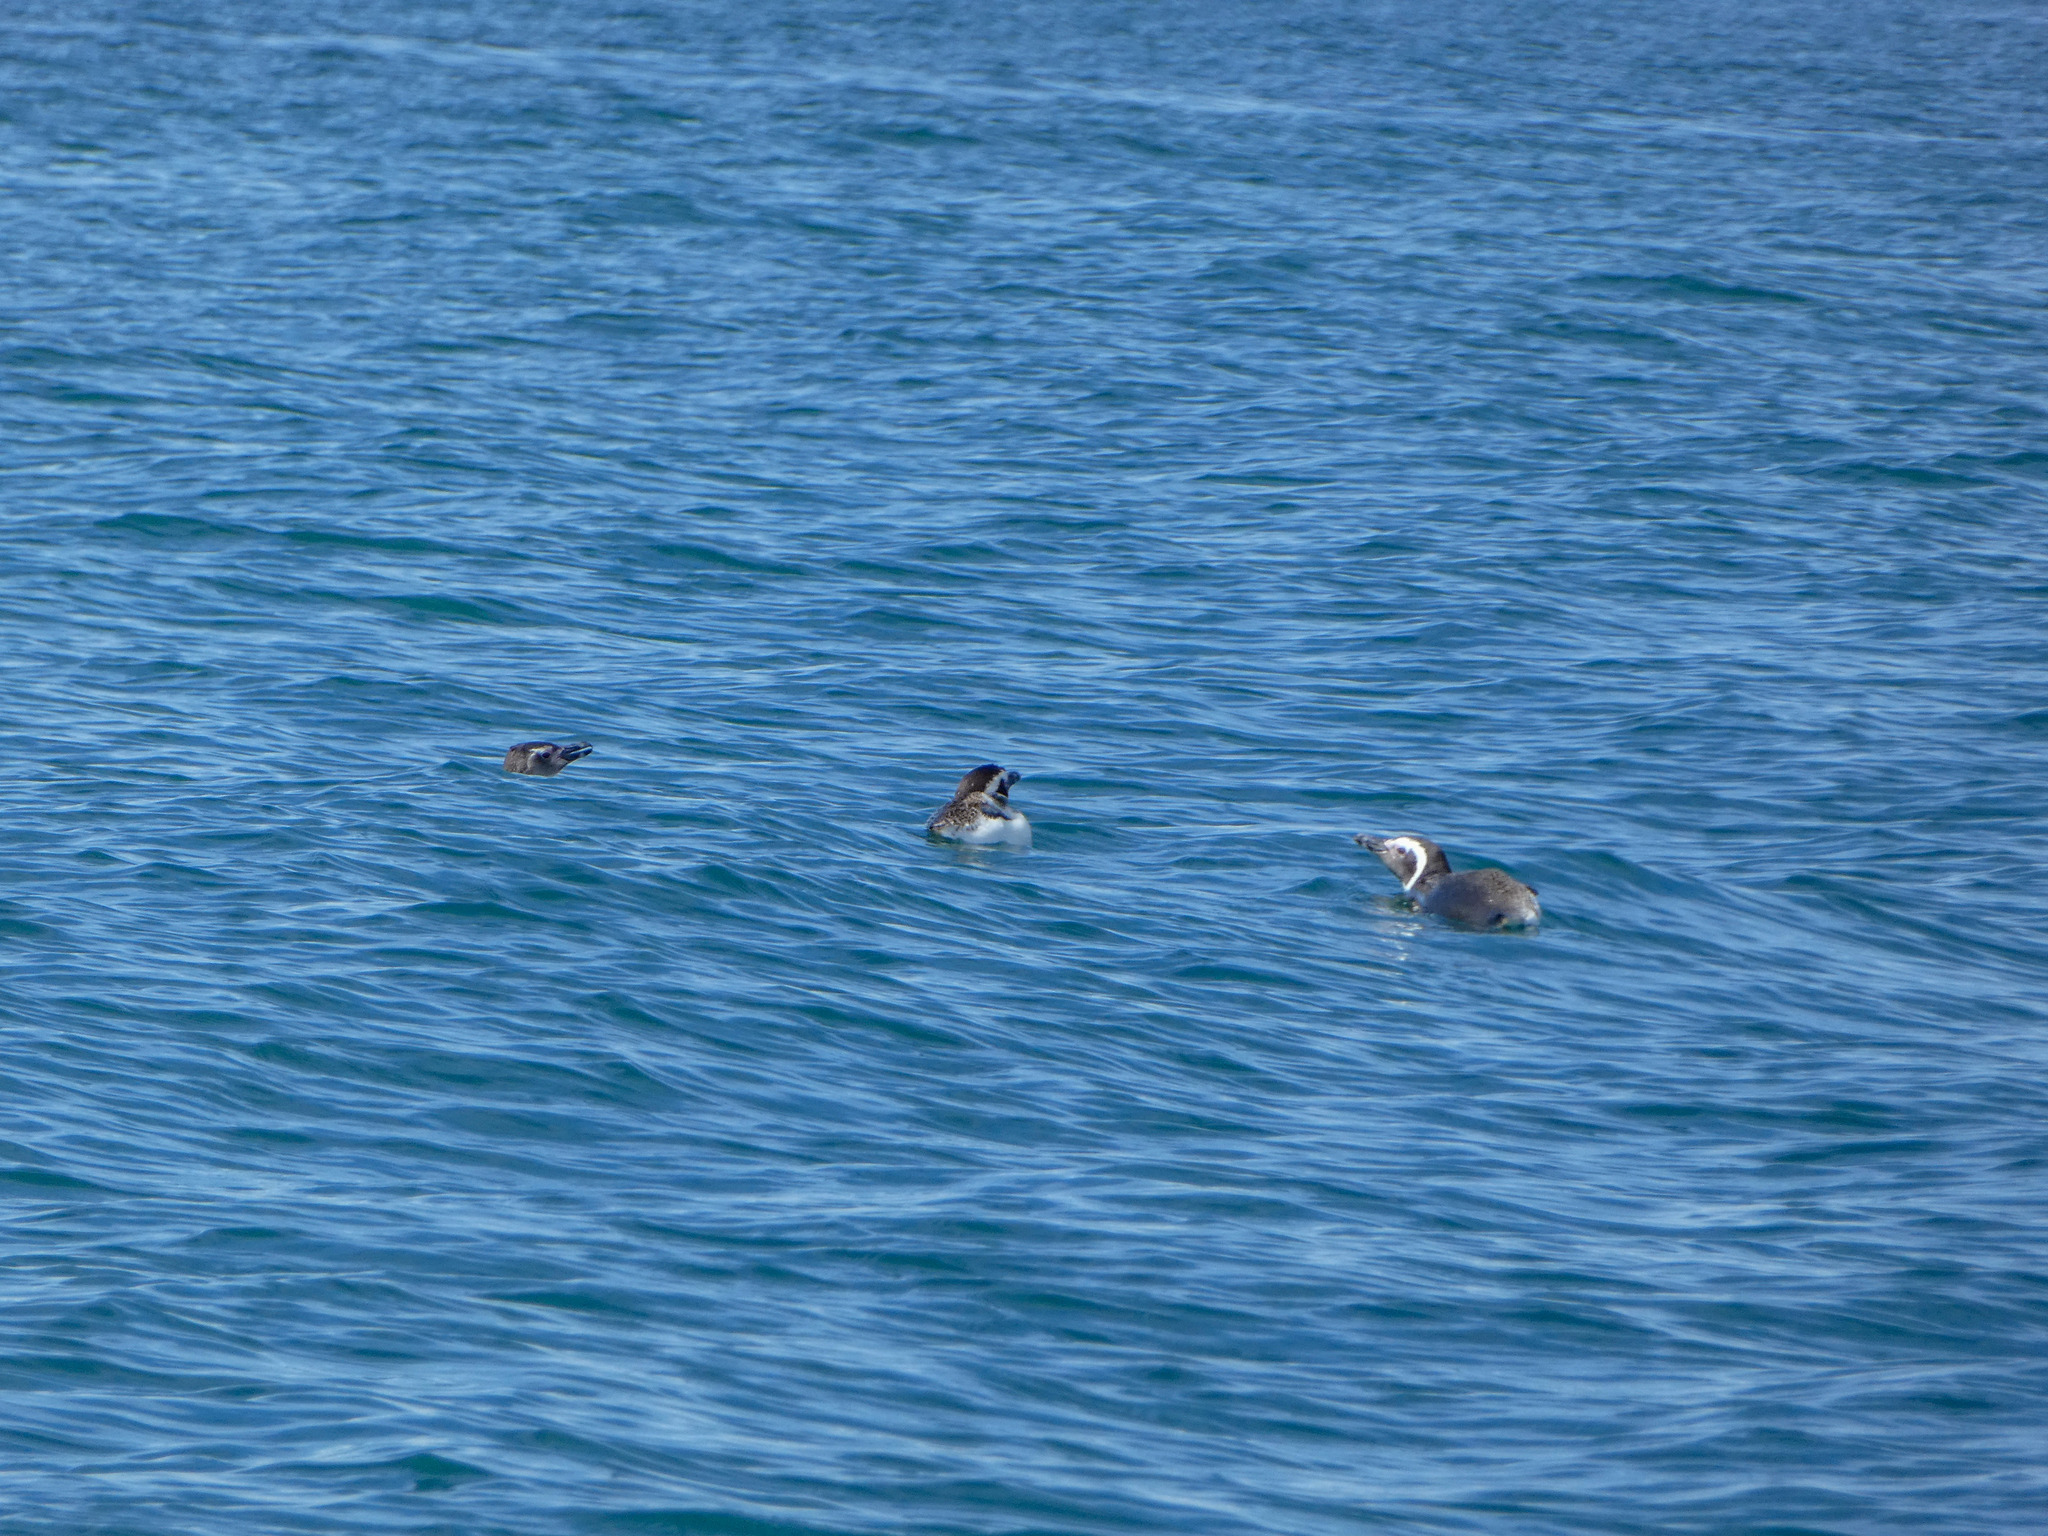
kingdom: Animalia
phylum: Chordata
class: Aves
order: Sphenisciformes
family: Spheniscidae
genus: Spheniscus
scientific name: Spheniscus magellanicus
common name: Magellanic penguin
